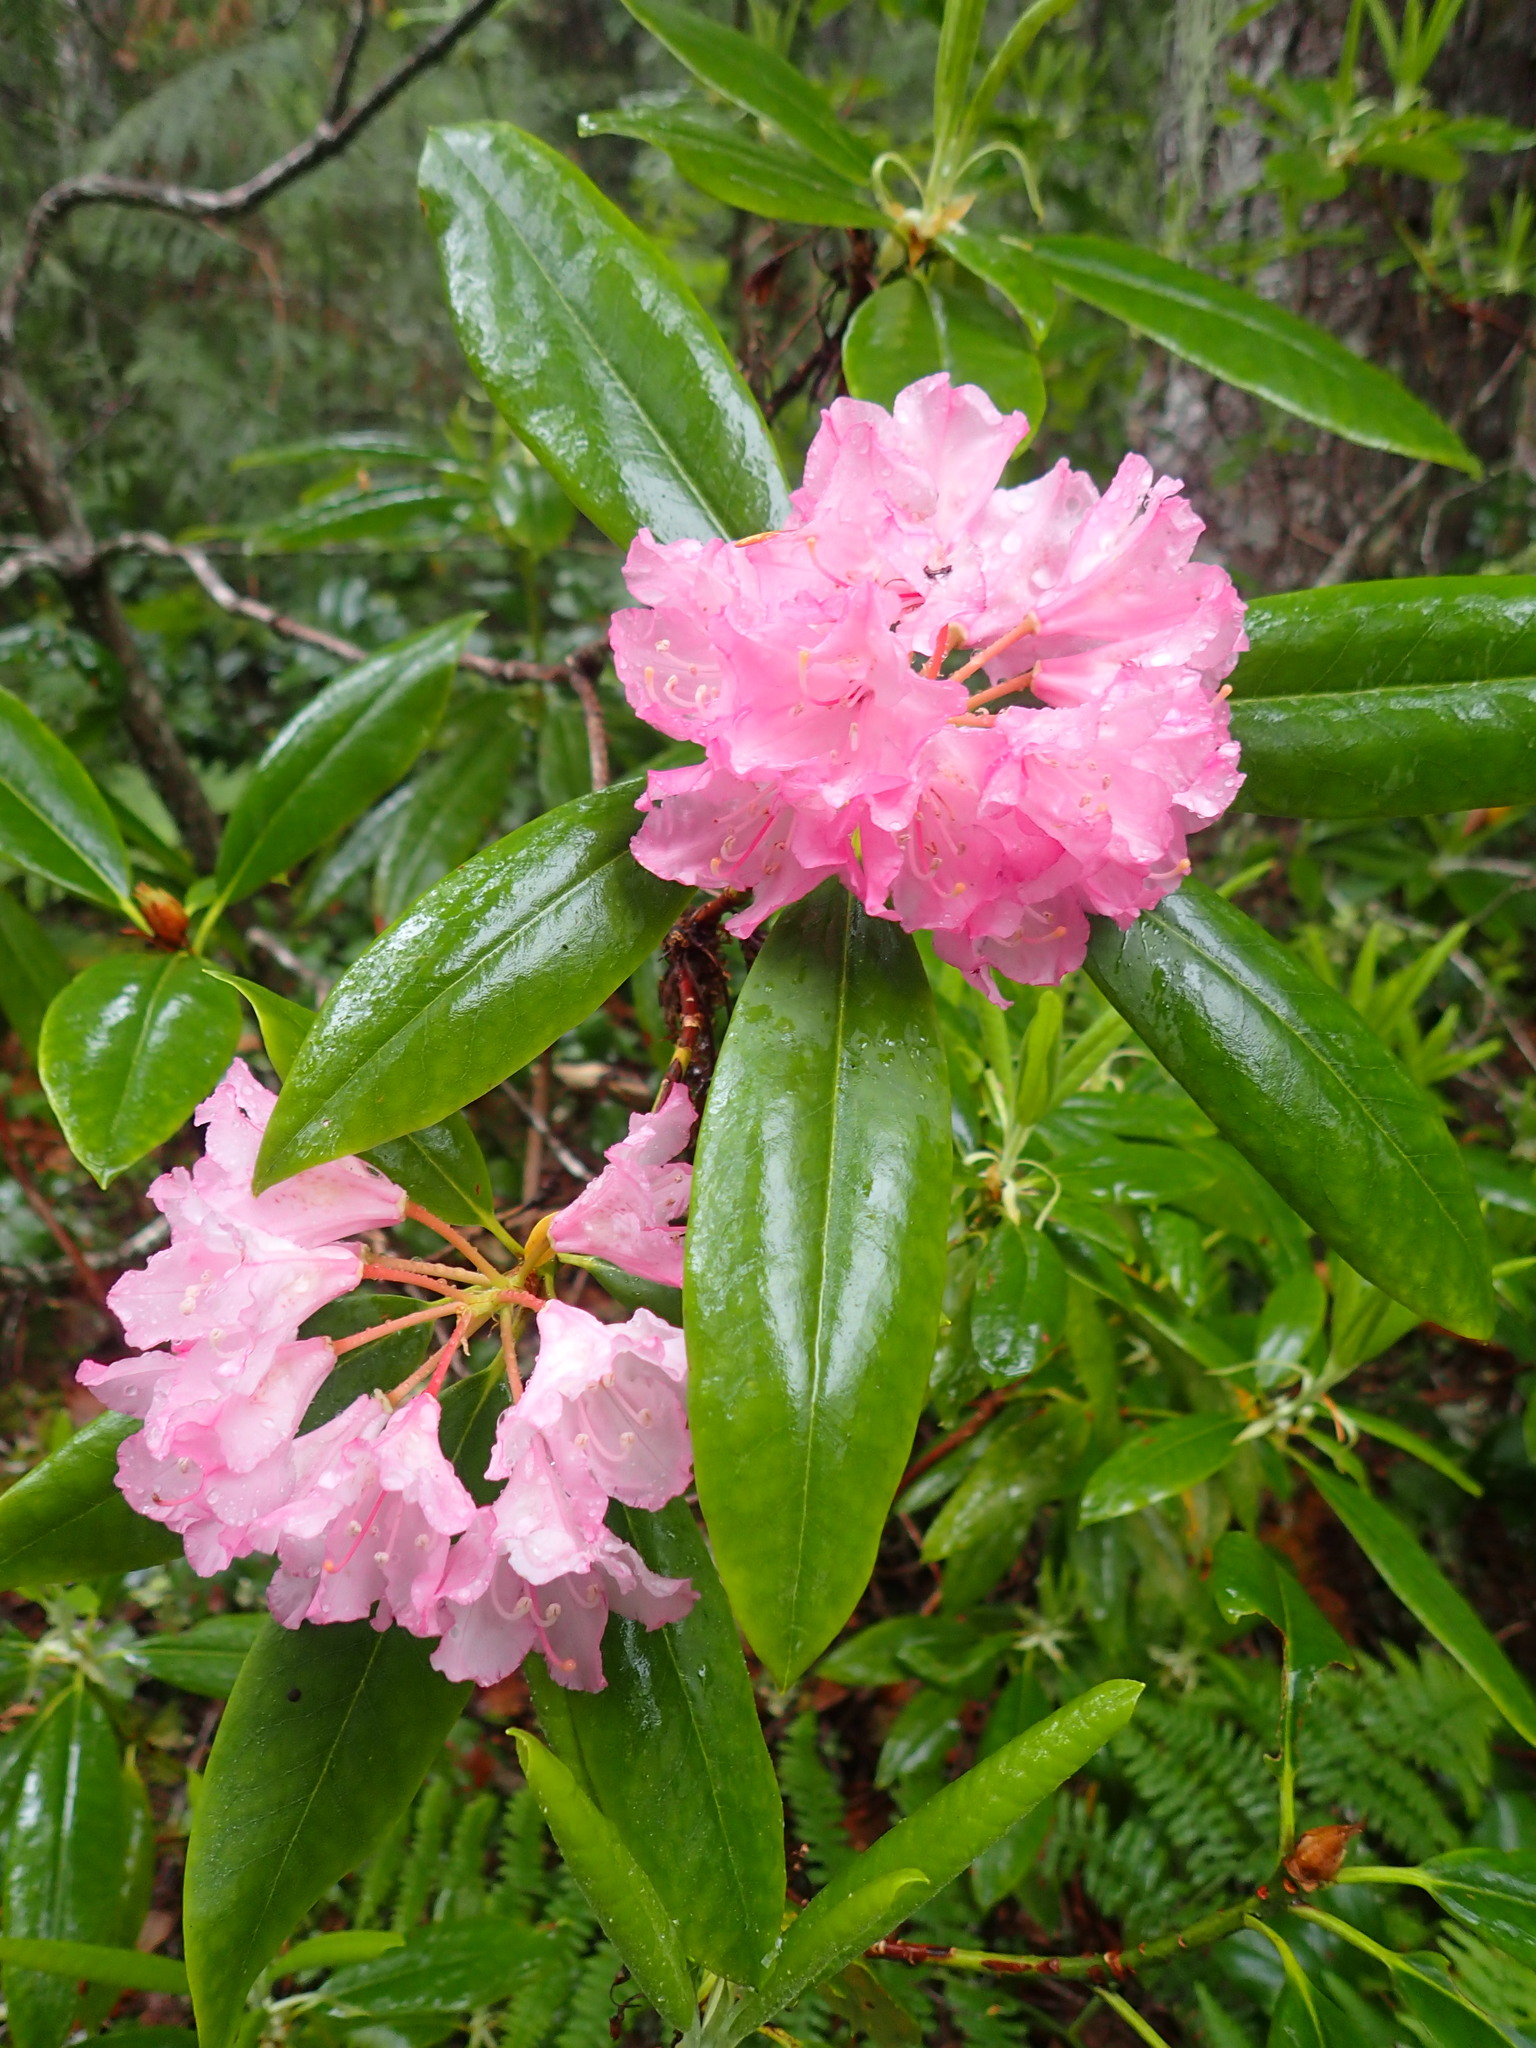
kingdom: Plantae
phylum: Tracheophyta
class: Magnoliopsida
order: Ericales
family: Ericaceae
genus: Rhododendron
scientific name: Rhododendron macrophyllum
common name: California rose bay
